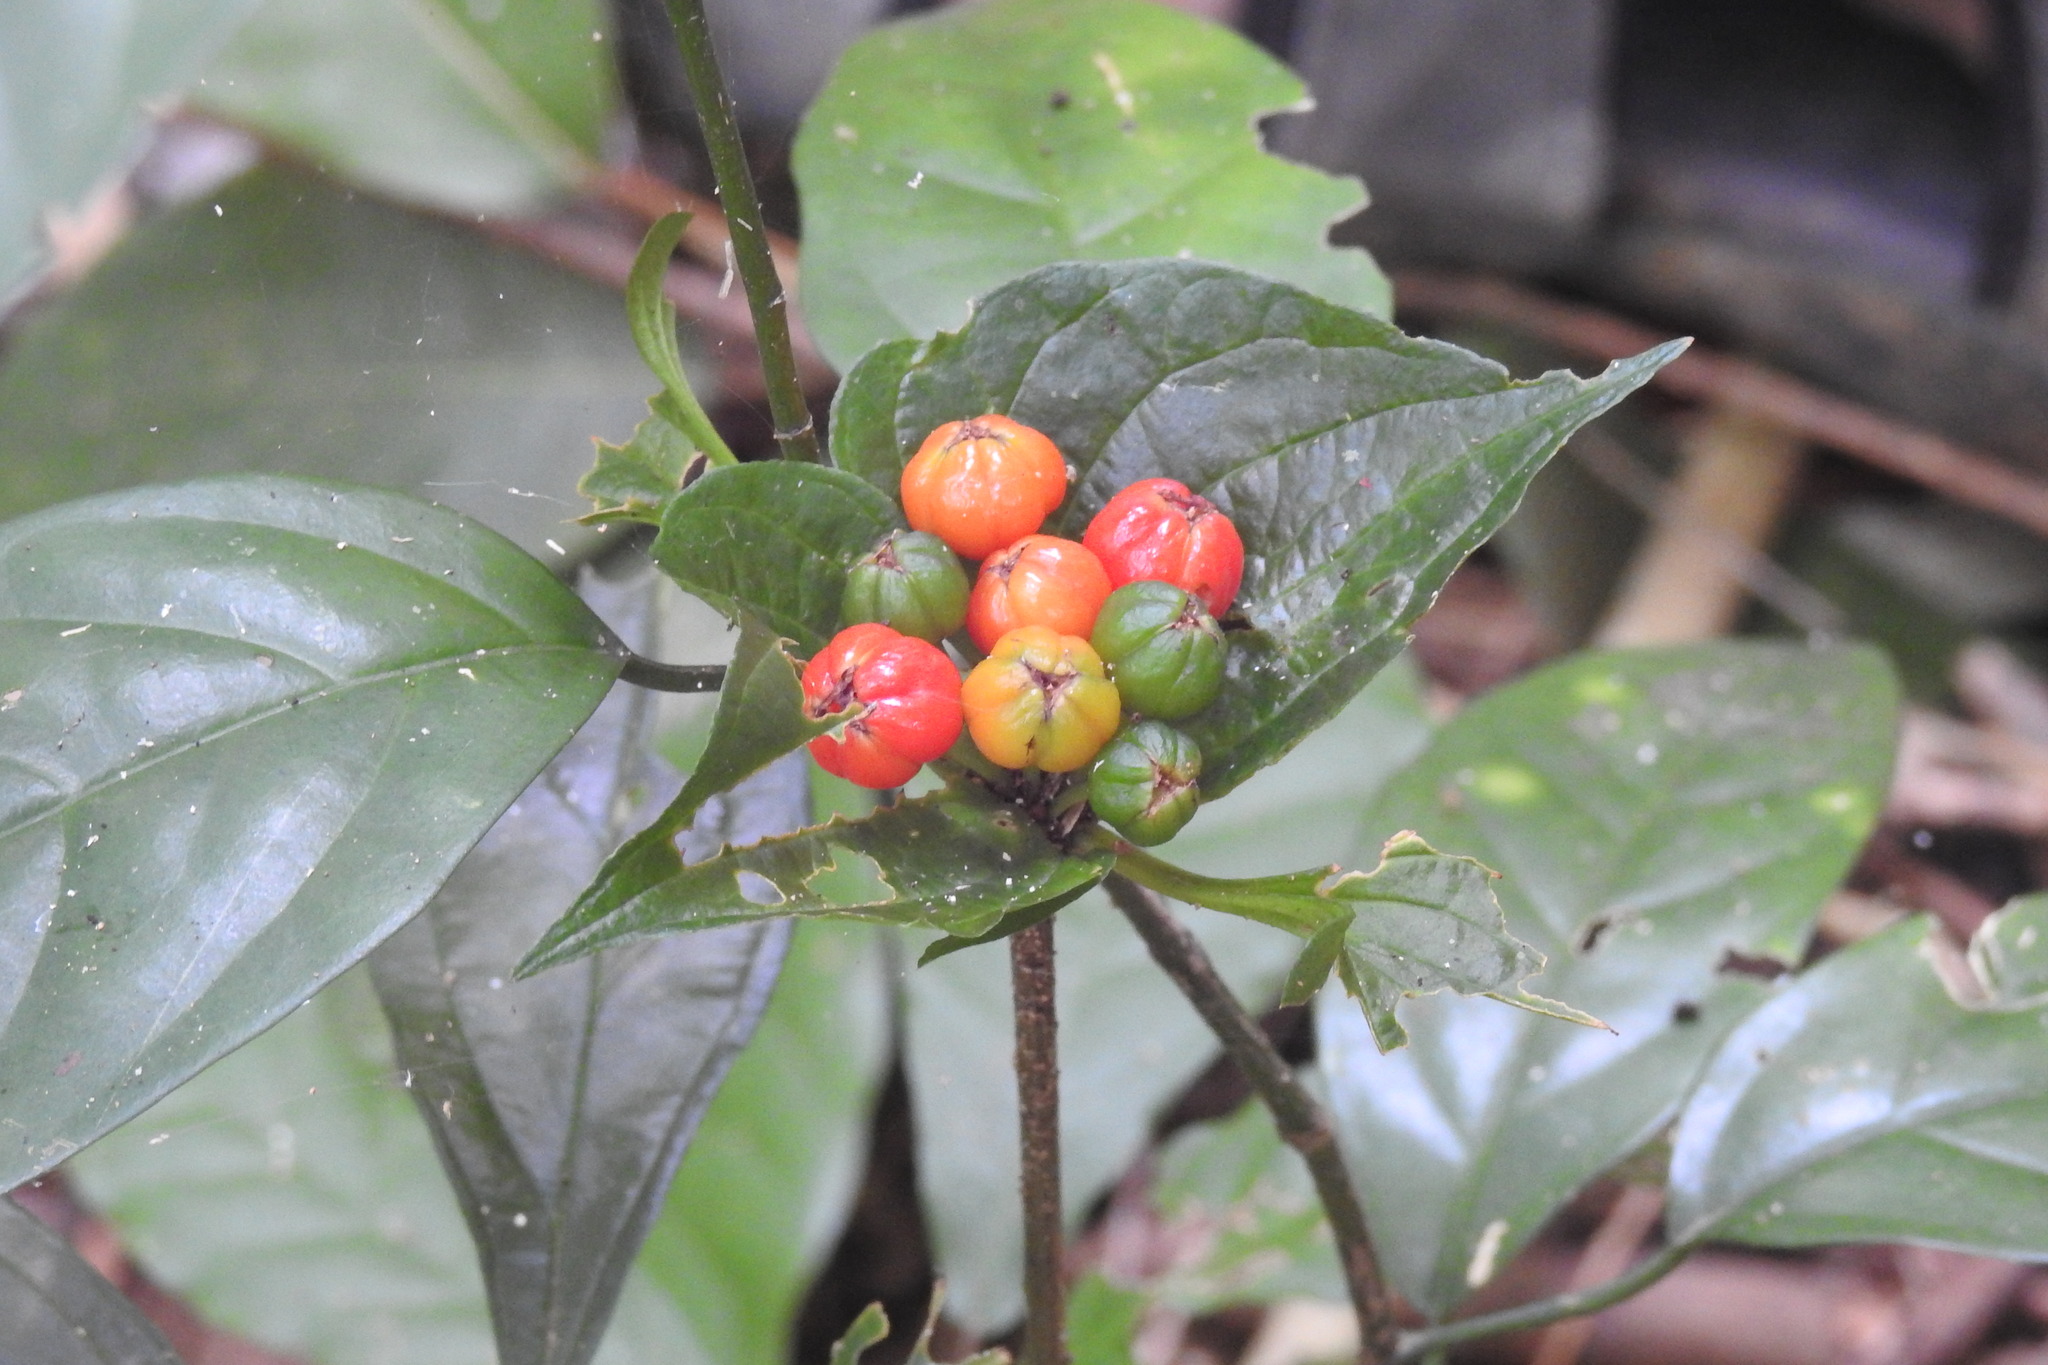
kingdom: Plantae
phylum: Tracheophyta
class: Liliopsida
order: Dioscoreales
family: Dioscoreaceae
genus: Tacca
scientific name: Tacca palmata
